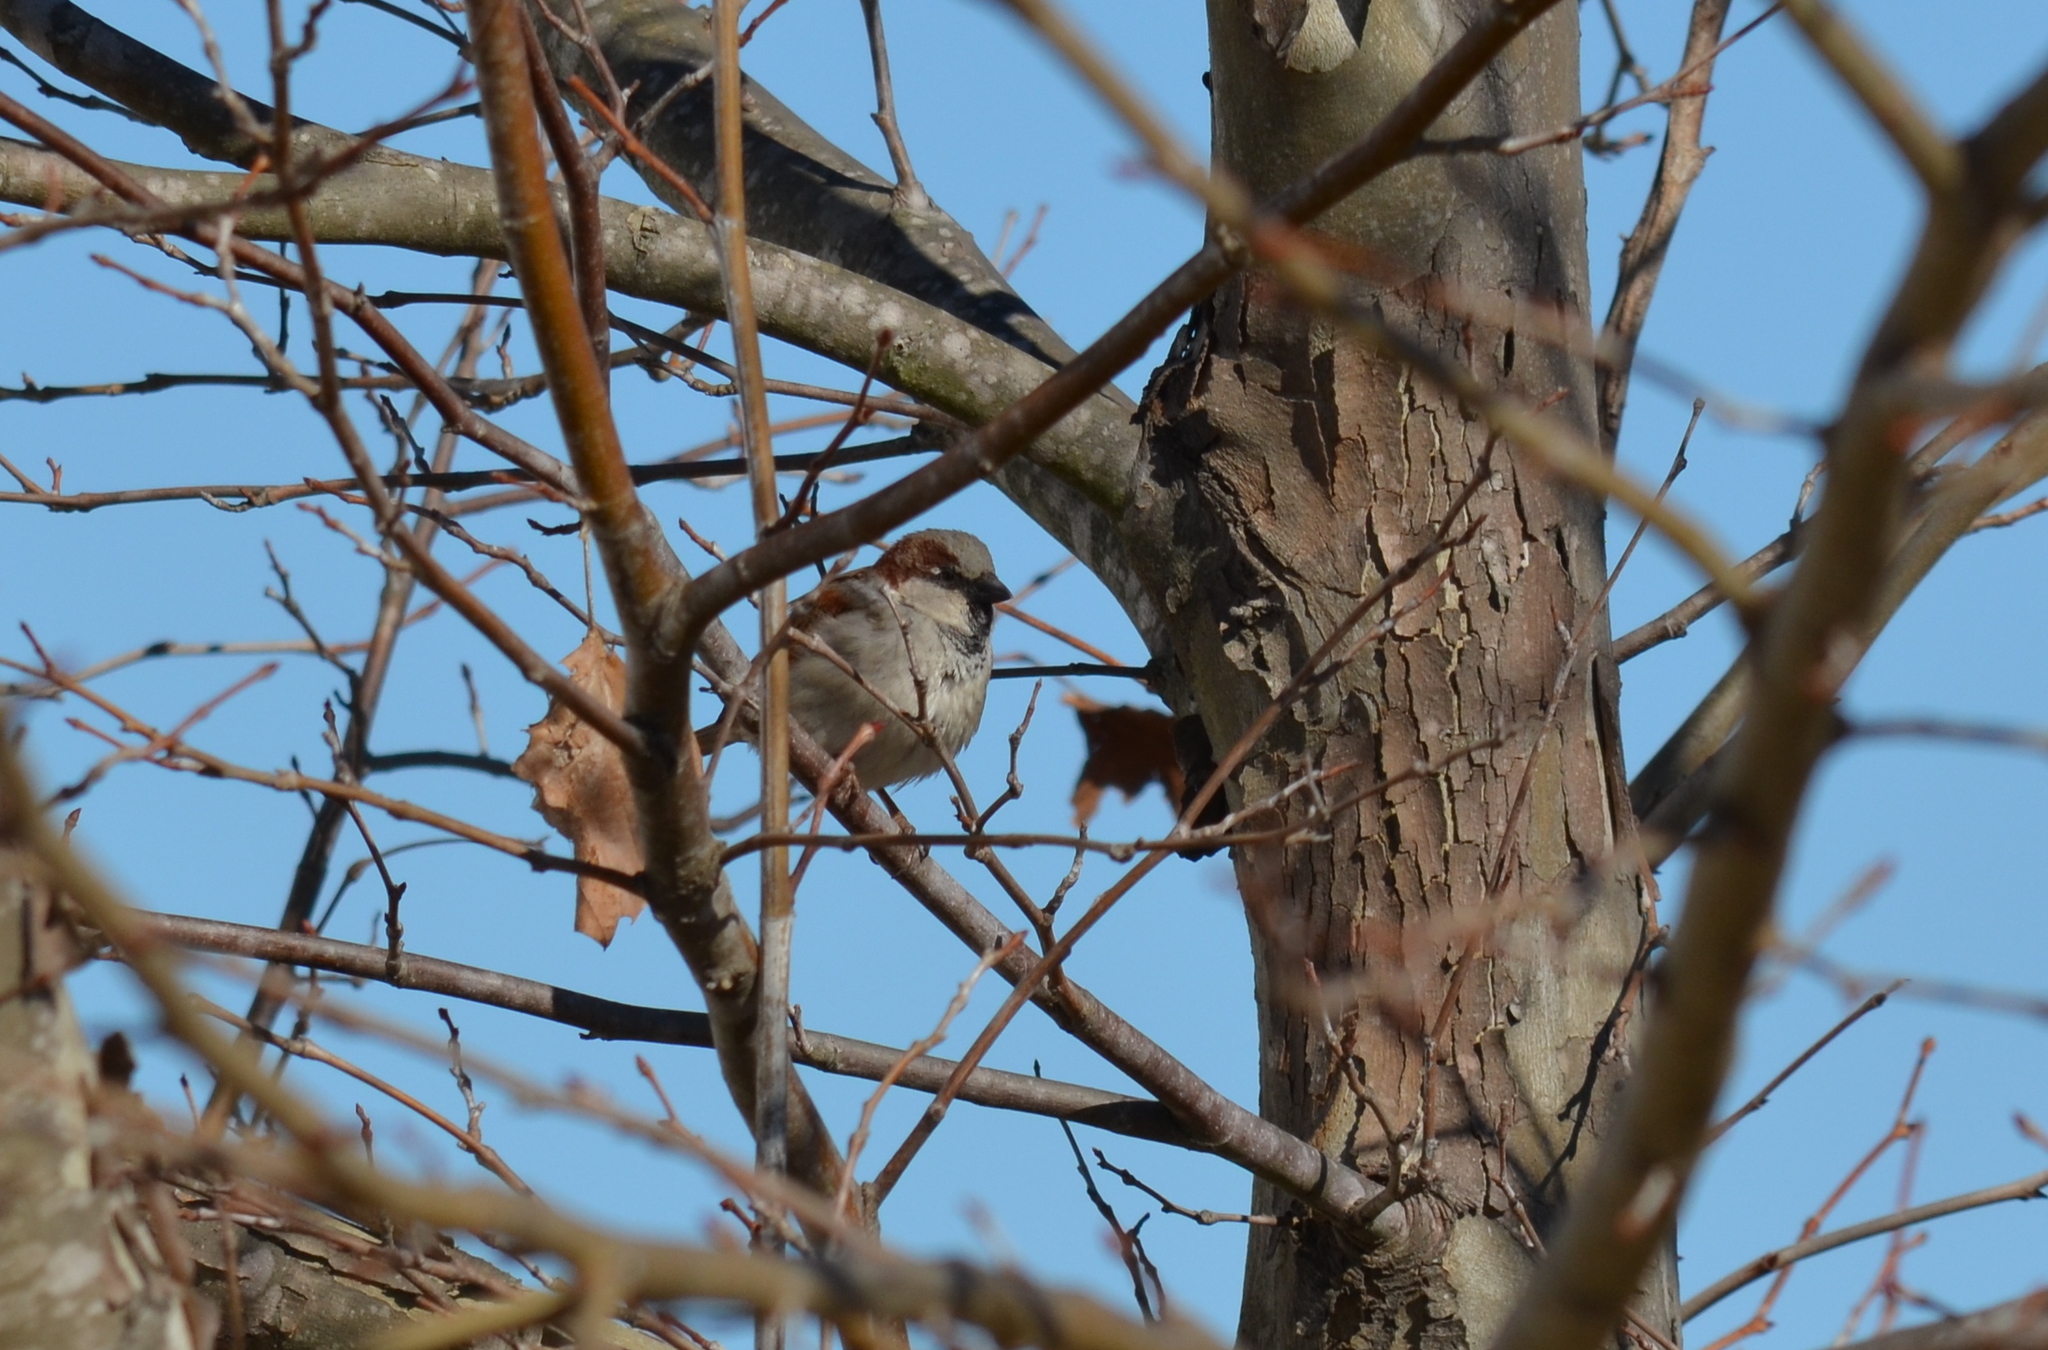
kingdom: Animalia
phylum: Chordata
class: Aves
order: Passeriformes
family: Passeridae
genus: Passer
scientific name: Passer domesticus
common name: House sparrow
